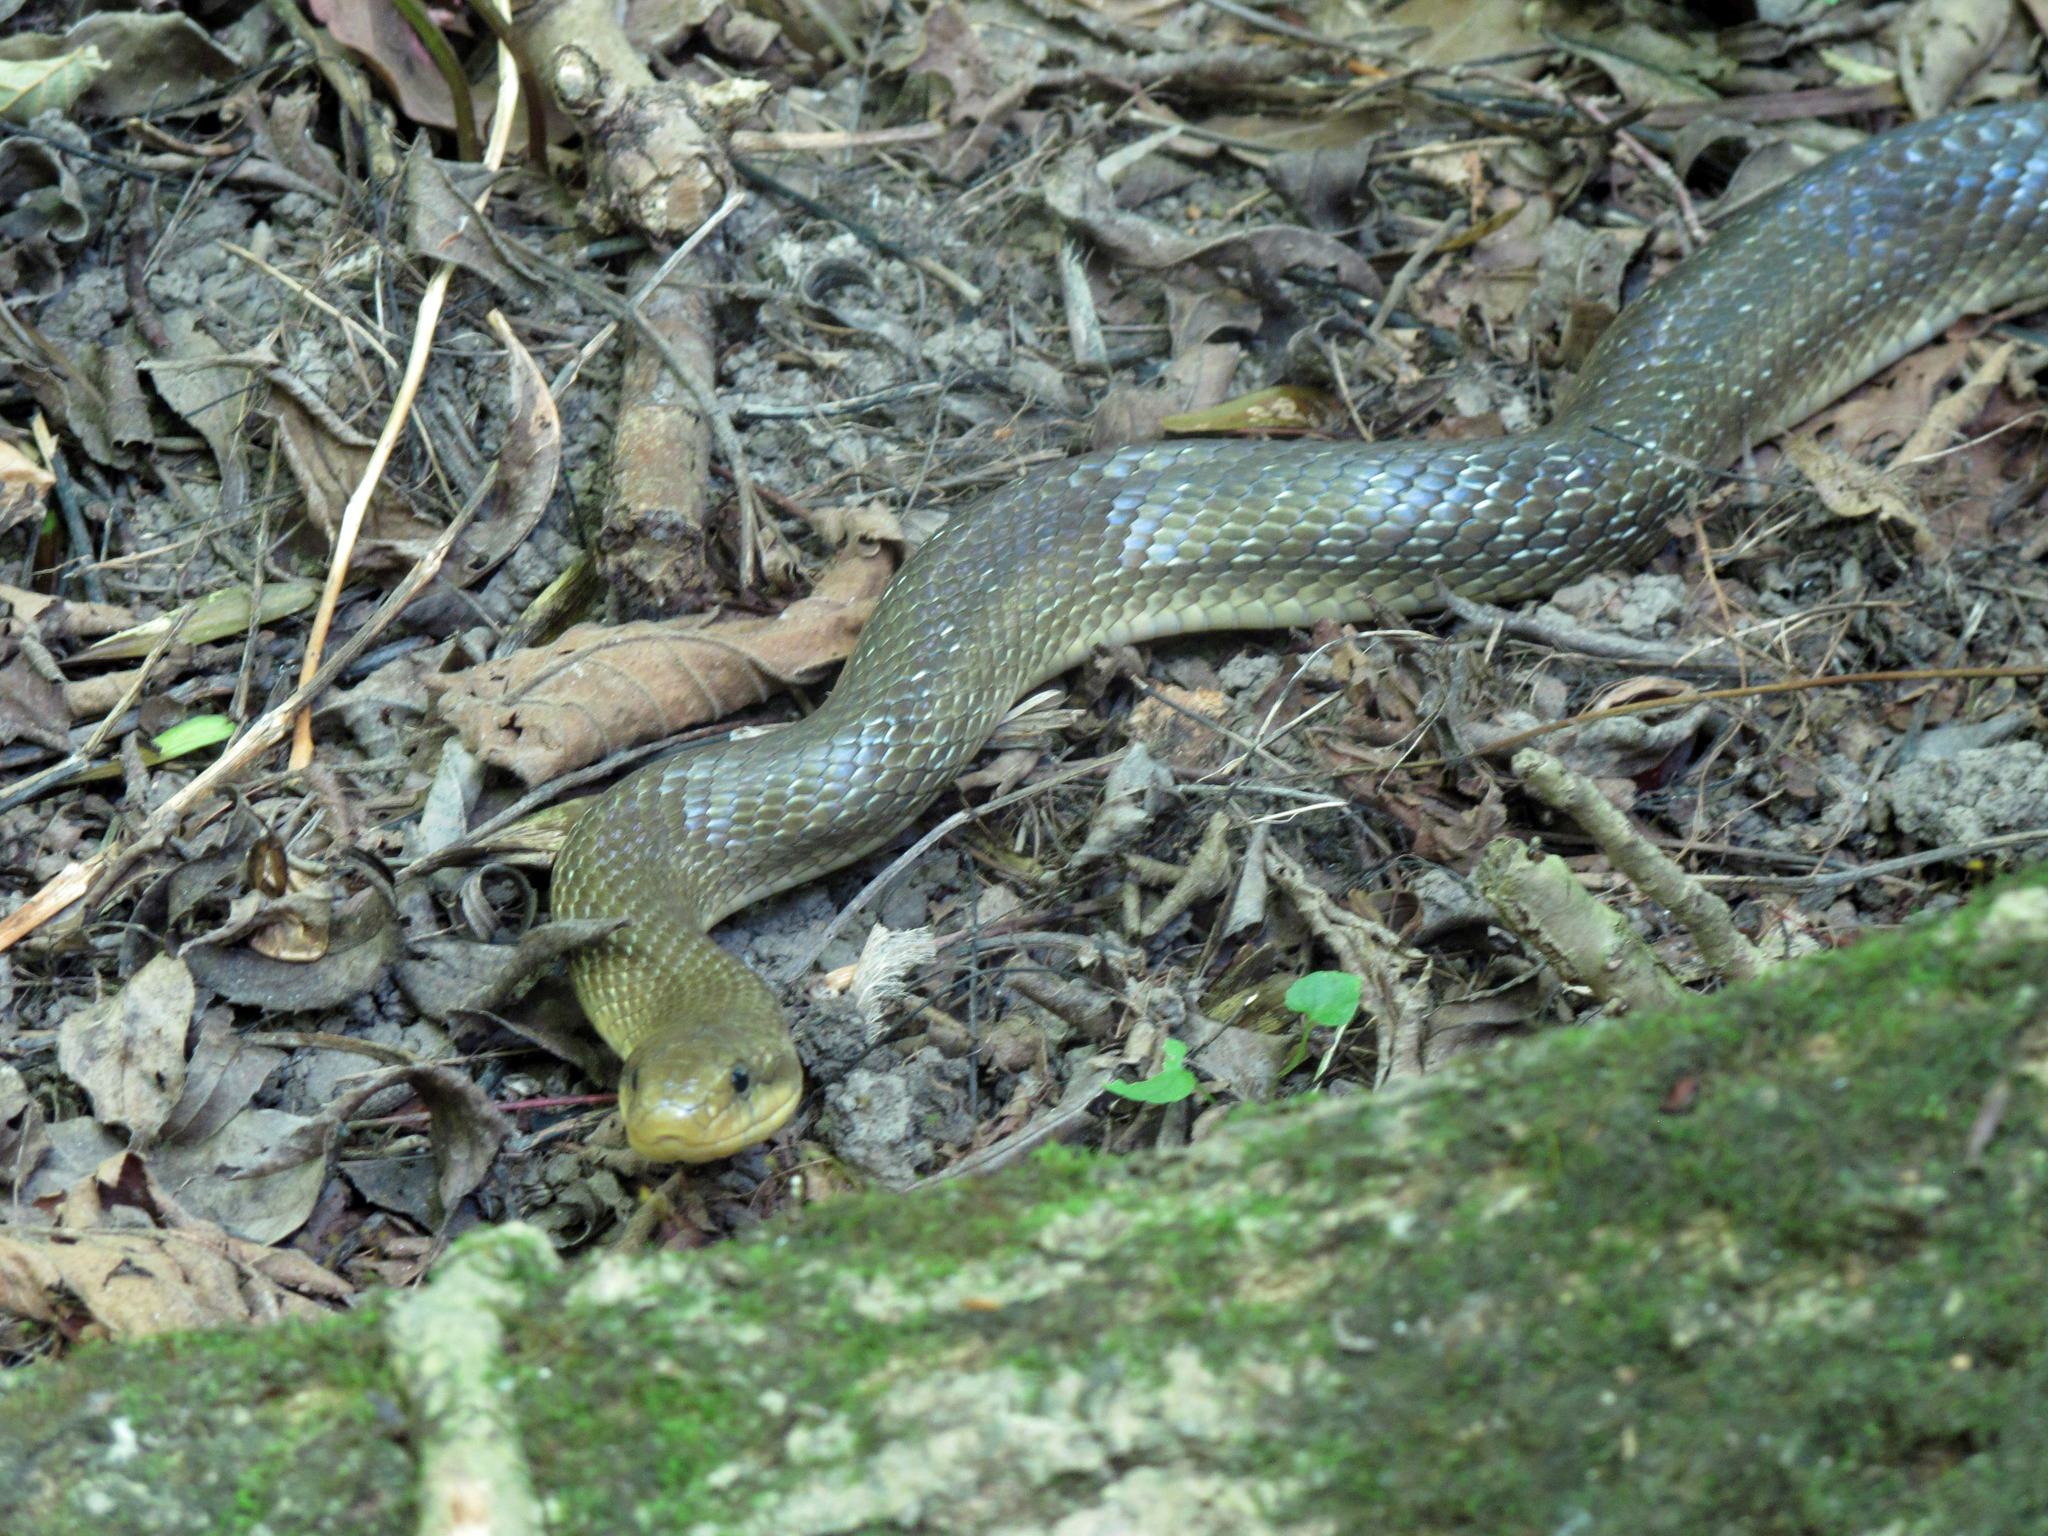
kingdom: Animalia
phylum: Chordata
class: Squamata
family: Colubridae
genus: Zamenis
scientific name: Zamenis longissimus
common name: Aesculapean snake
